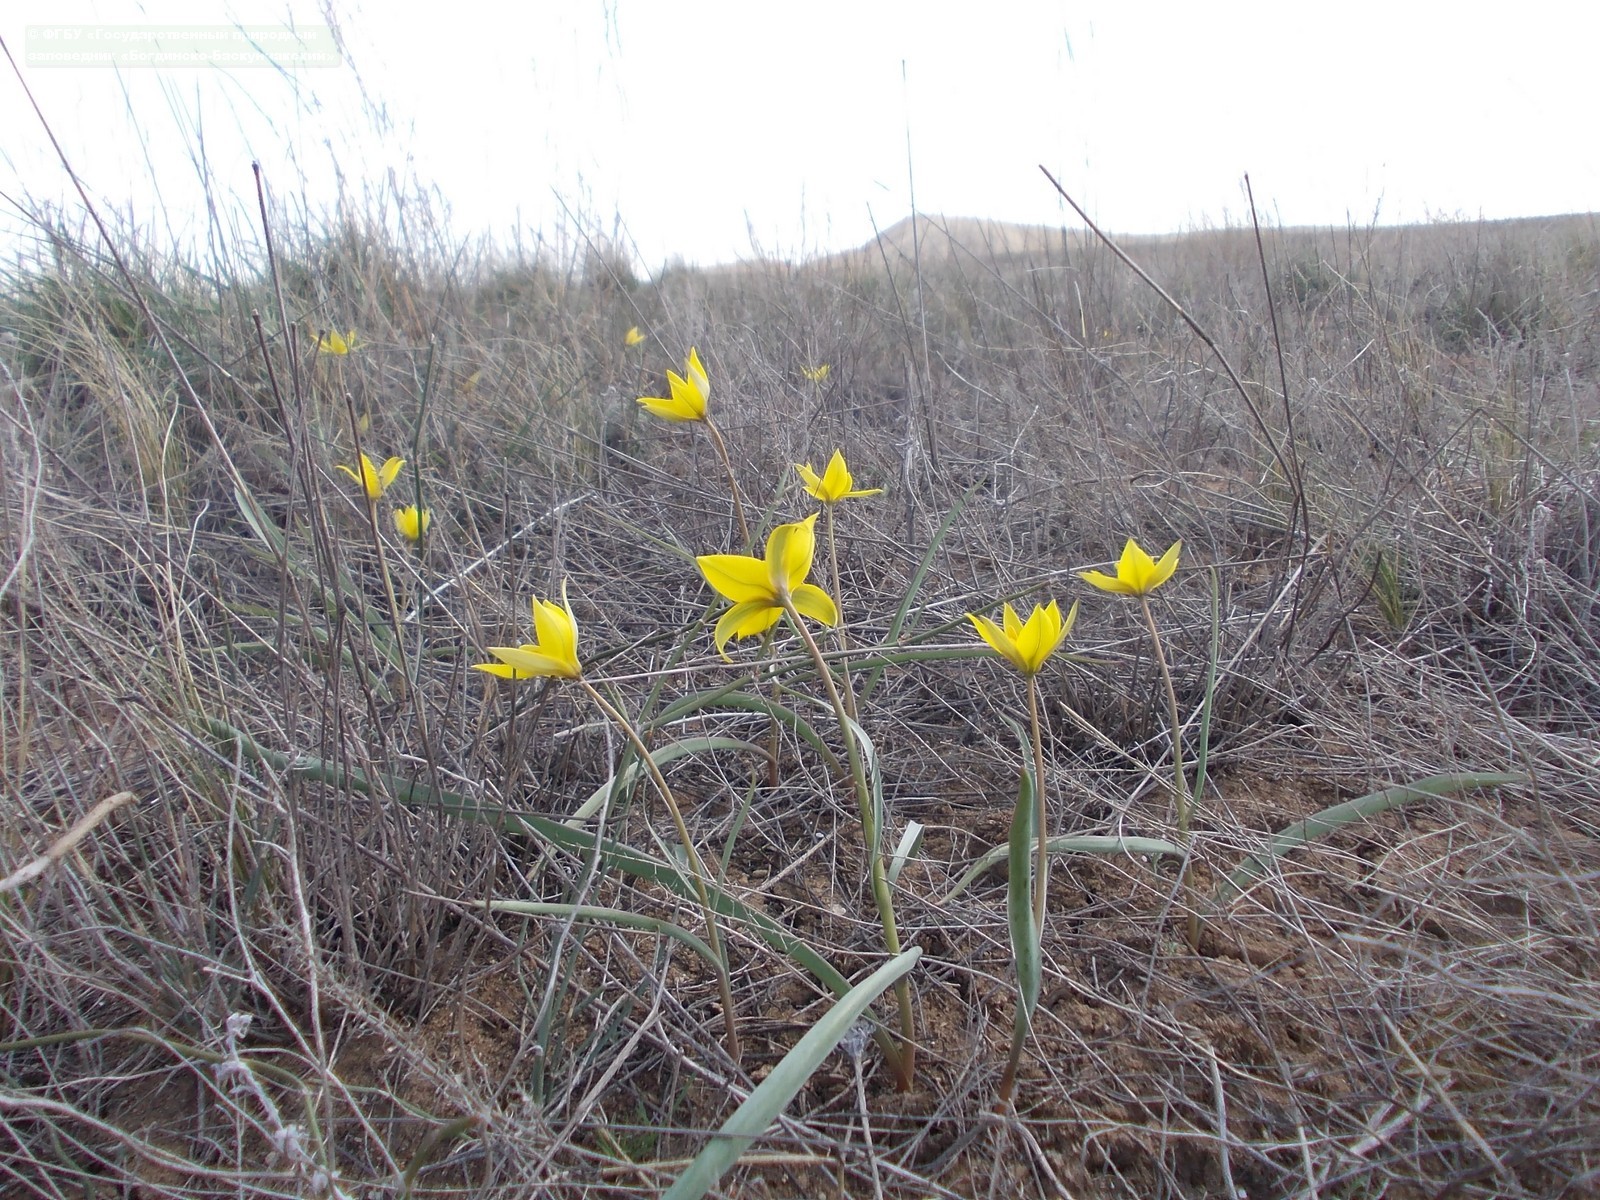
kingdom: Plantae
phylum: Tracheophyta
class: Liliopsida
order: Liliales
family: Liliaceae
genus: Tulipa
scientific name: Tulipa sylvestris
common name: Wild tulip
